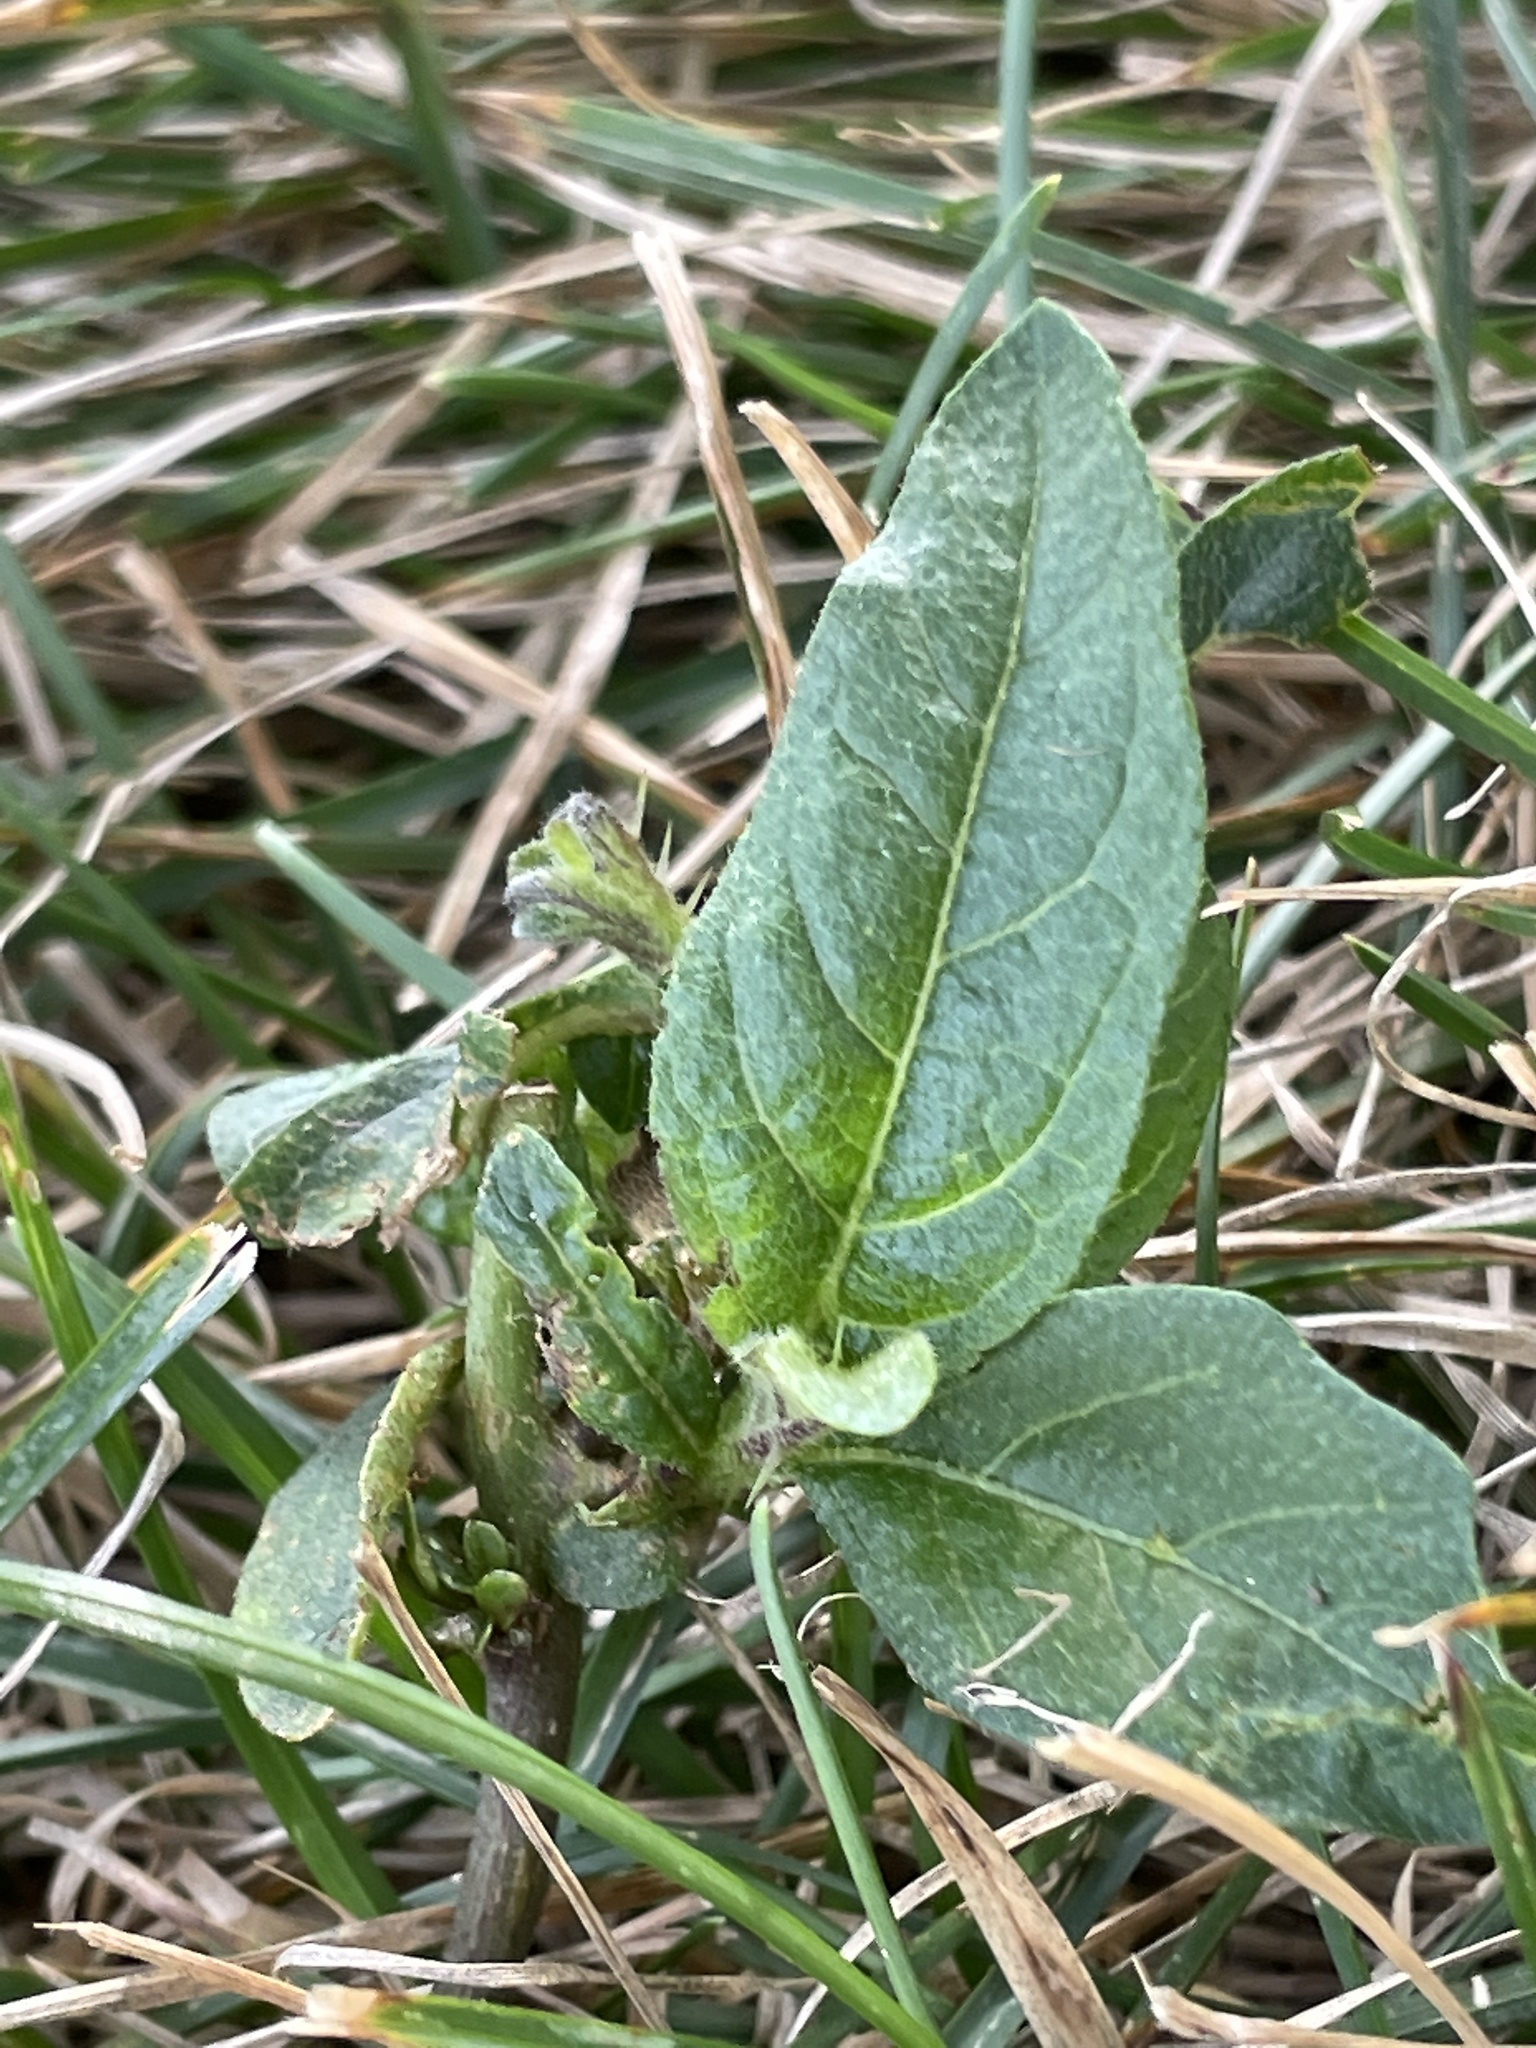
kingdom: Plantae
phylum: Tracheophyta
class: Magnoliopsida
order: Solanales
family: Solanaceae
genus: Solanum
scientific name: Solanum carolinense
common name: Horse-nettle
